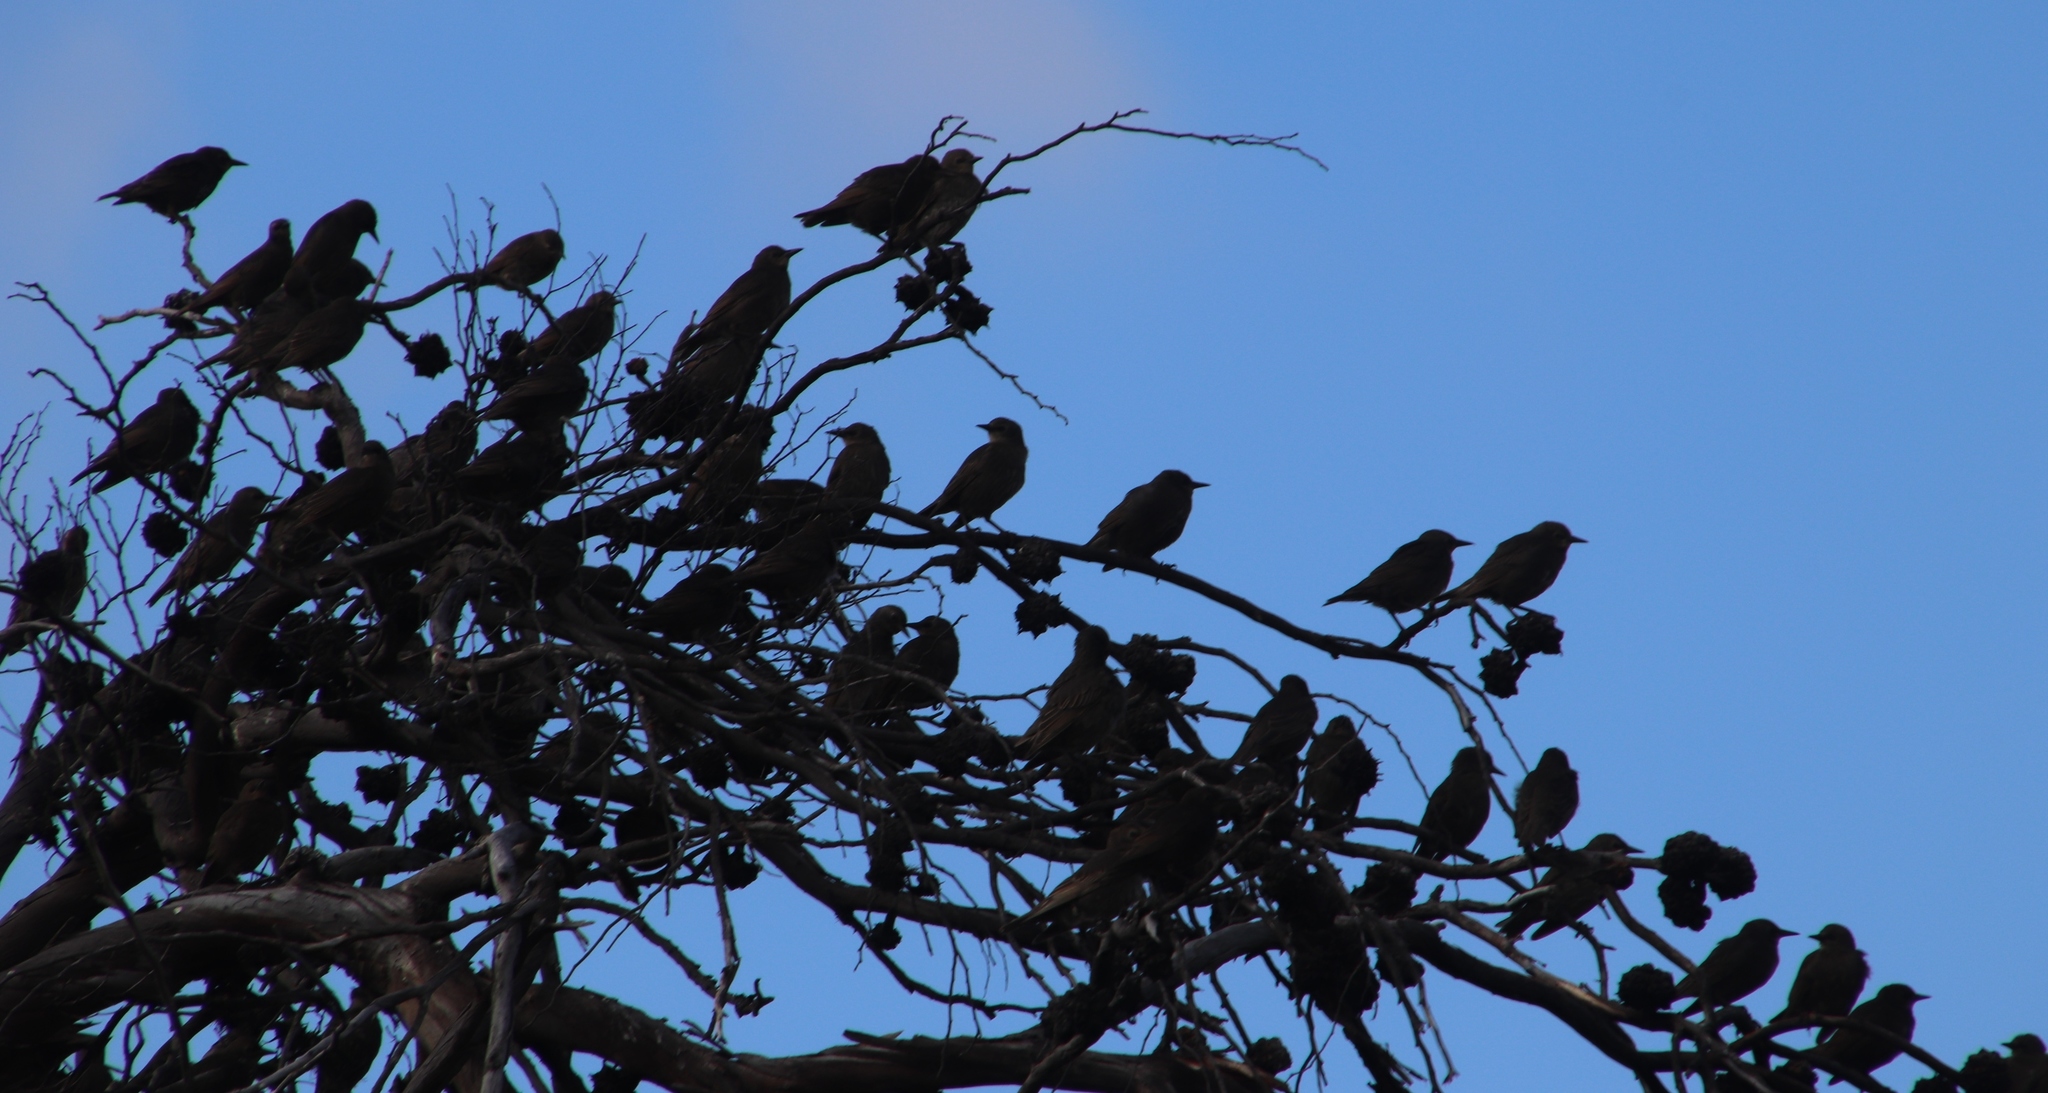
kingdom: Animalia
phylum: Chordata
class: Aves
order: Passeriformes
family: Sturnidae
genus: Sturnus
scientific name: Sturnus vulgaris
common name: Common starling
